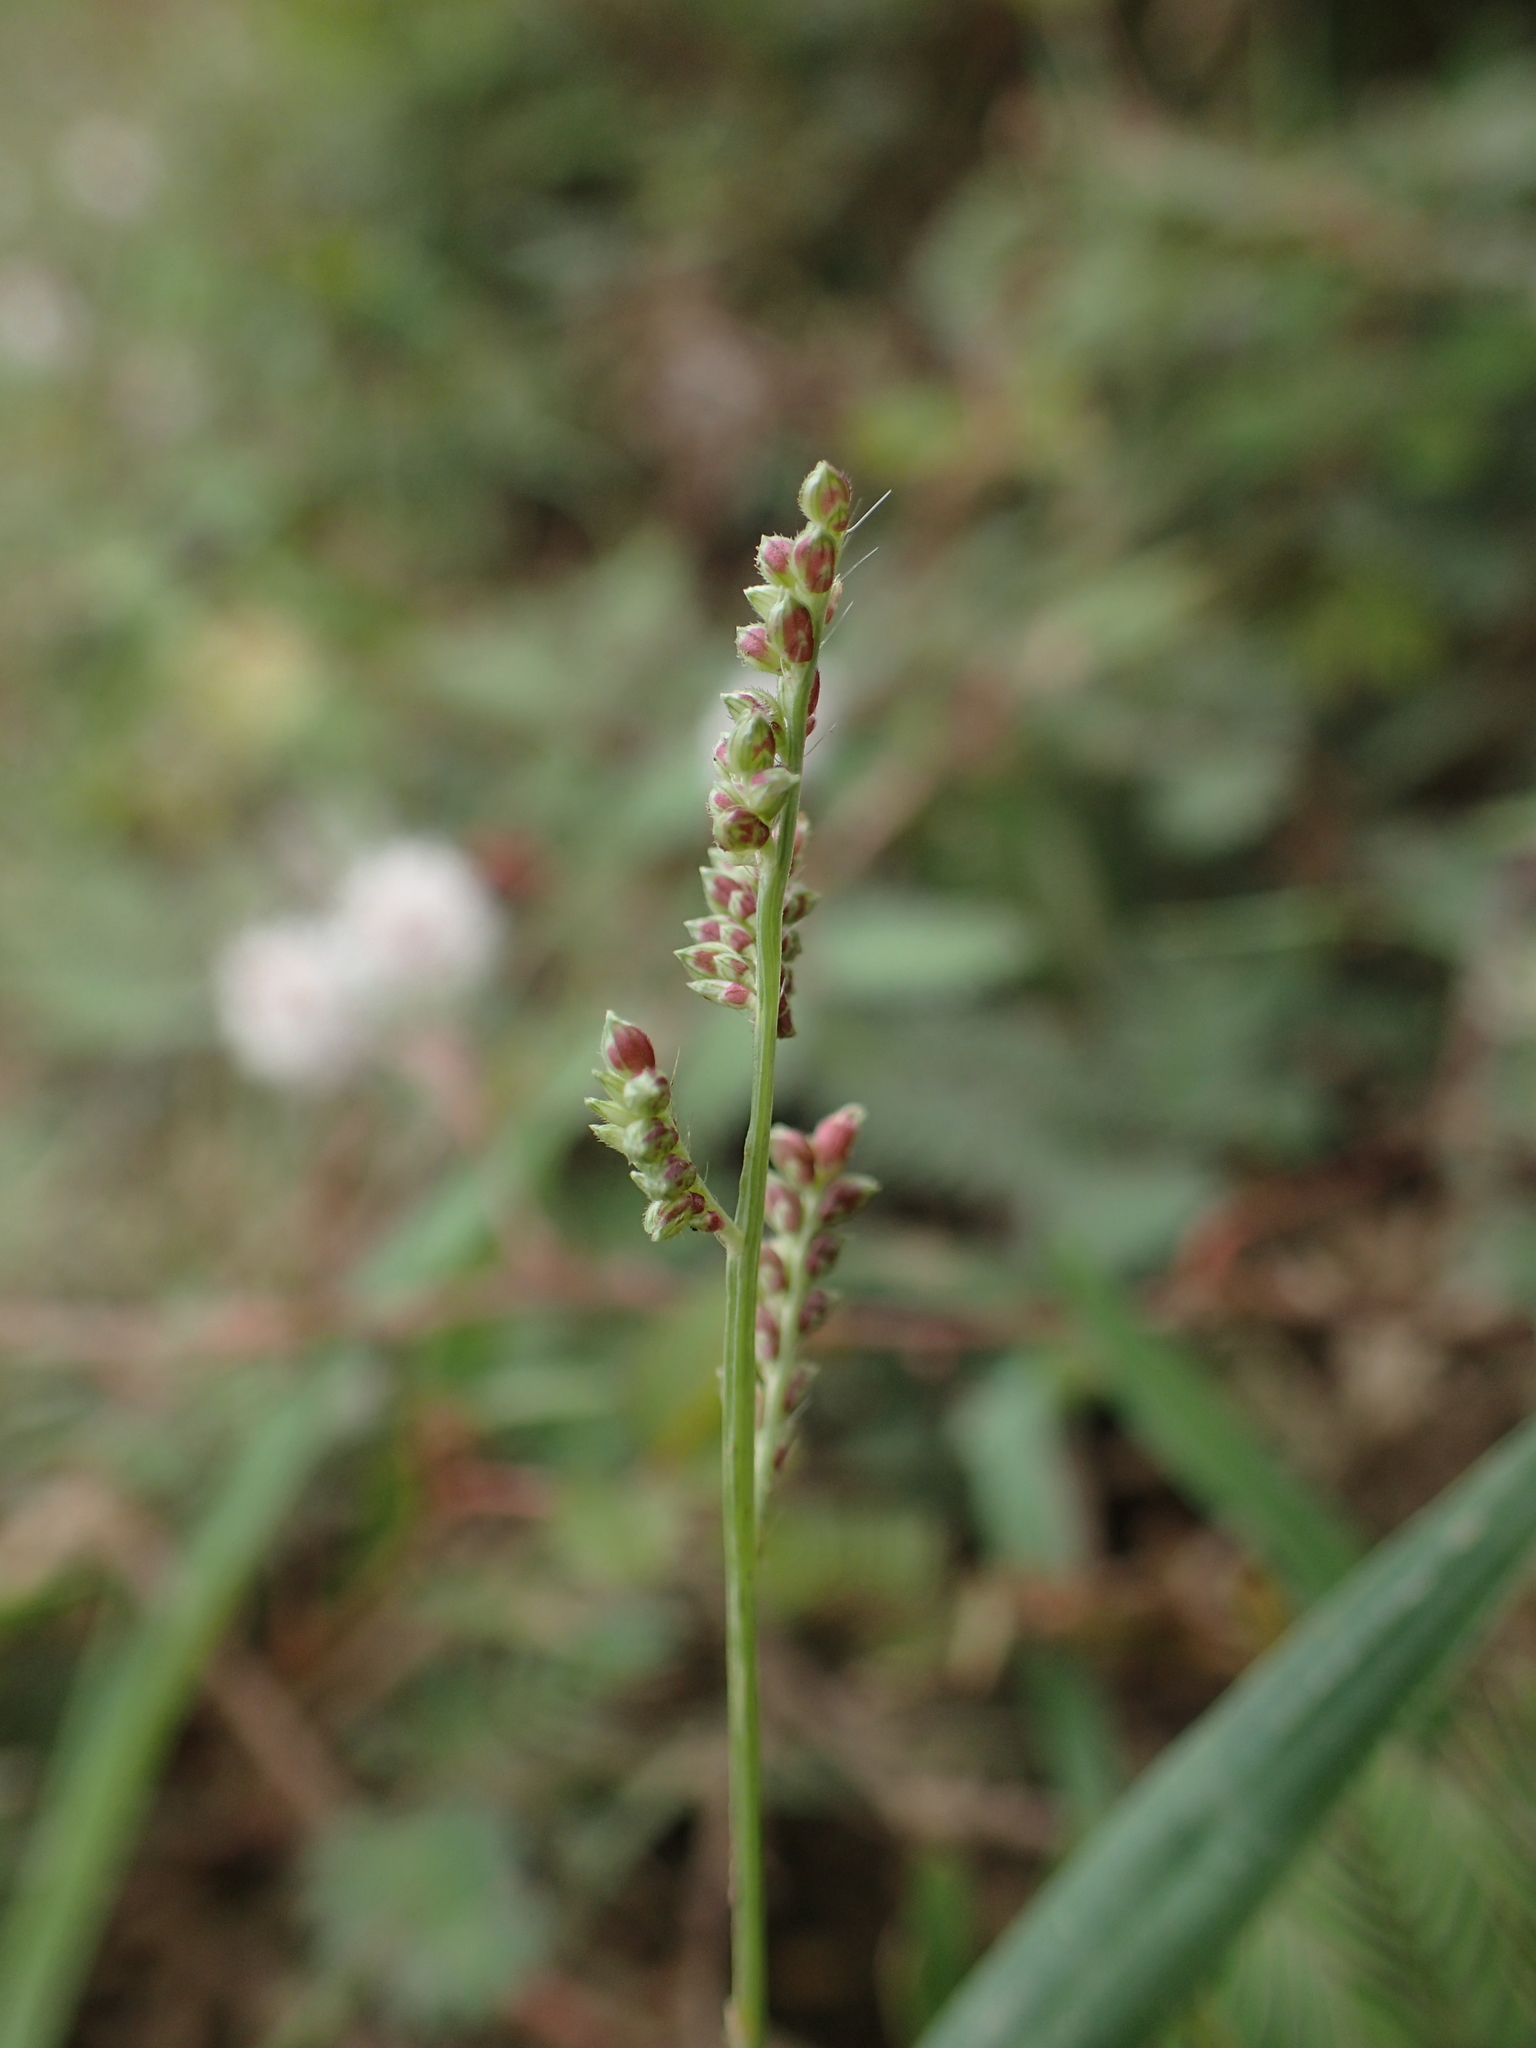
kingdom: Plantae
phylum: Tracheophyta
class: Liliopsida
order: Poales
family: Poaceae
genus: Echinochloa
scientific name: Echinochloa colonum
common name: Jungle rice
